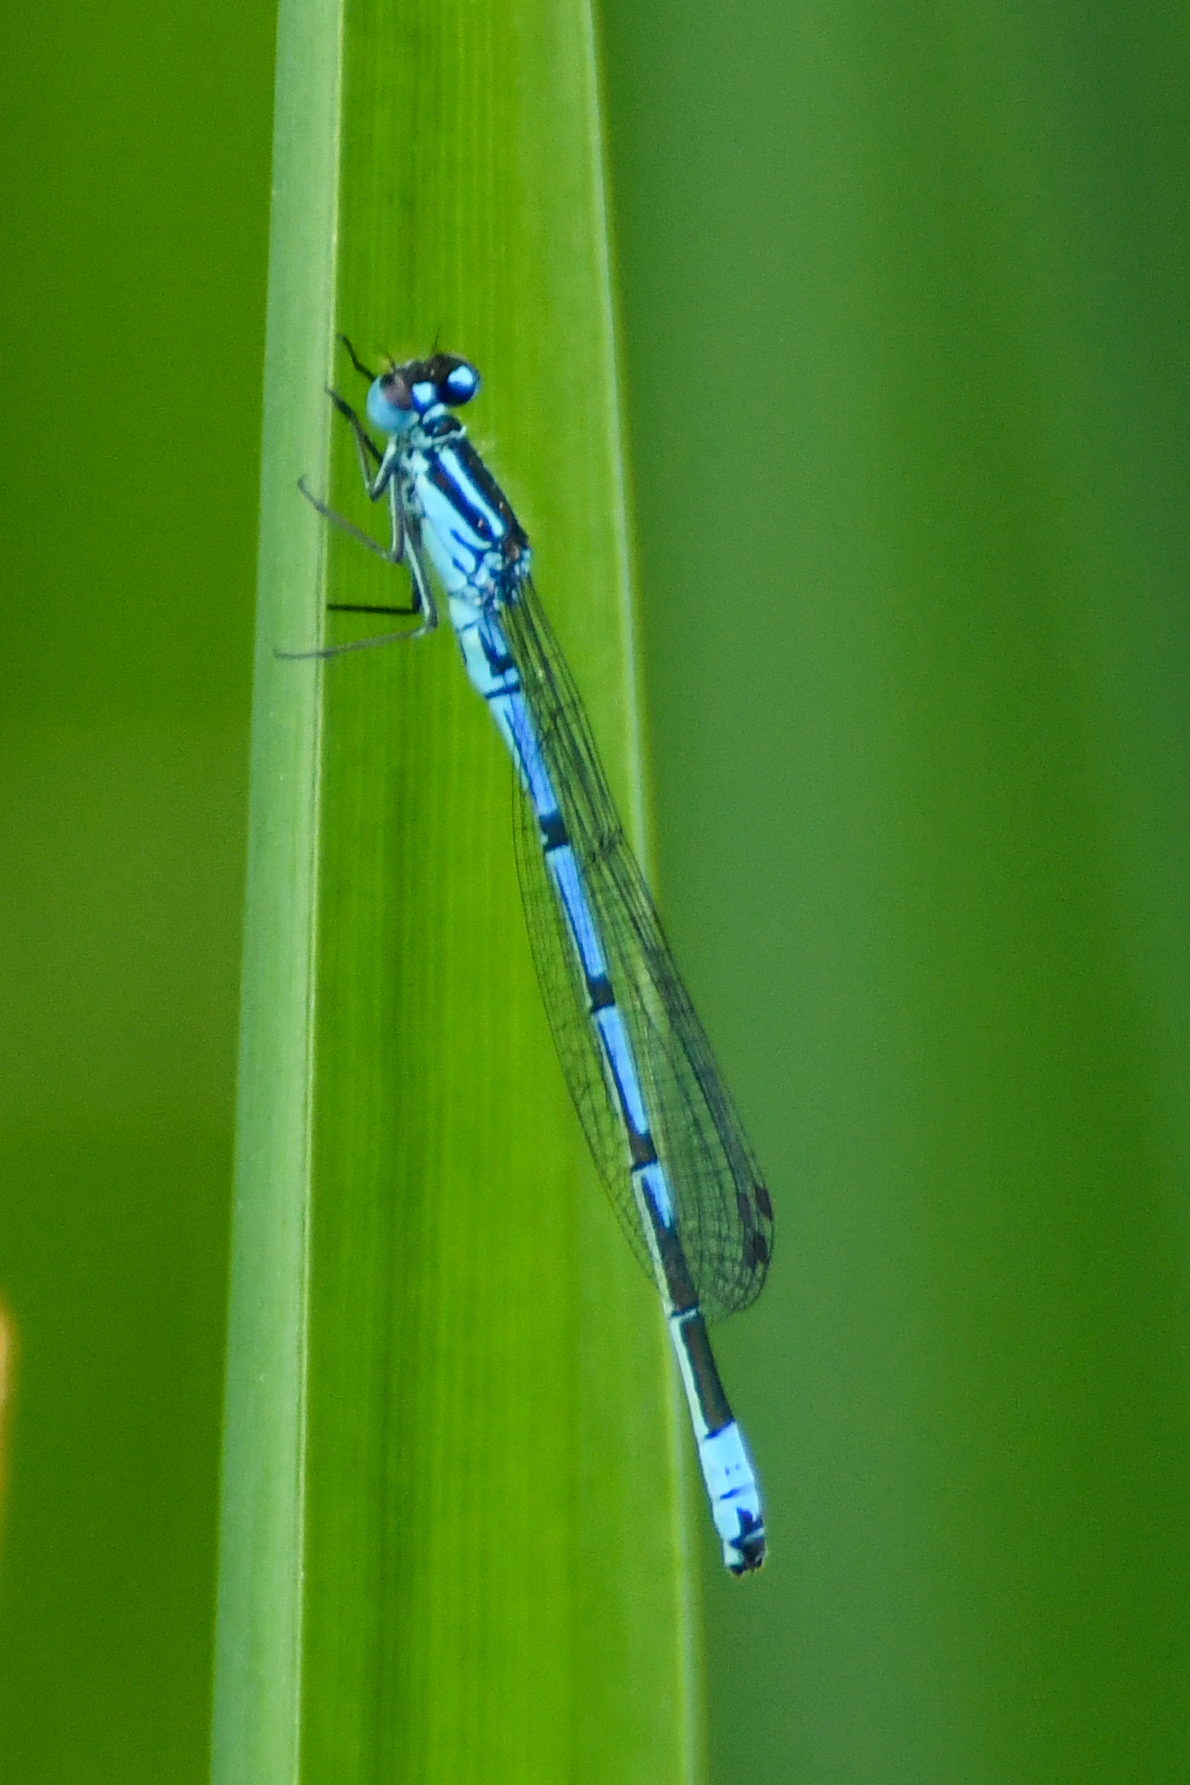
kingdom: Animalia
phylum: Arthropoda
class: Insecta
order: Odonata
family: Coenagrionidae
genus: Coenagrion
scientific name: Coenagrion puella
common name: Azure damselfly
